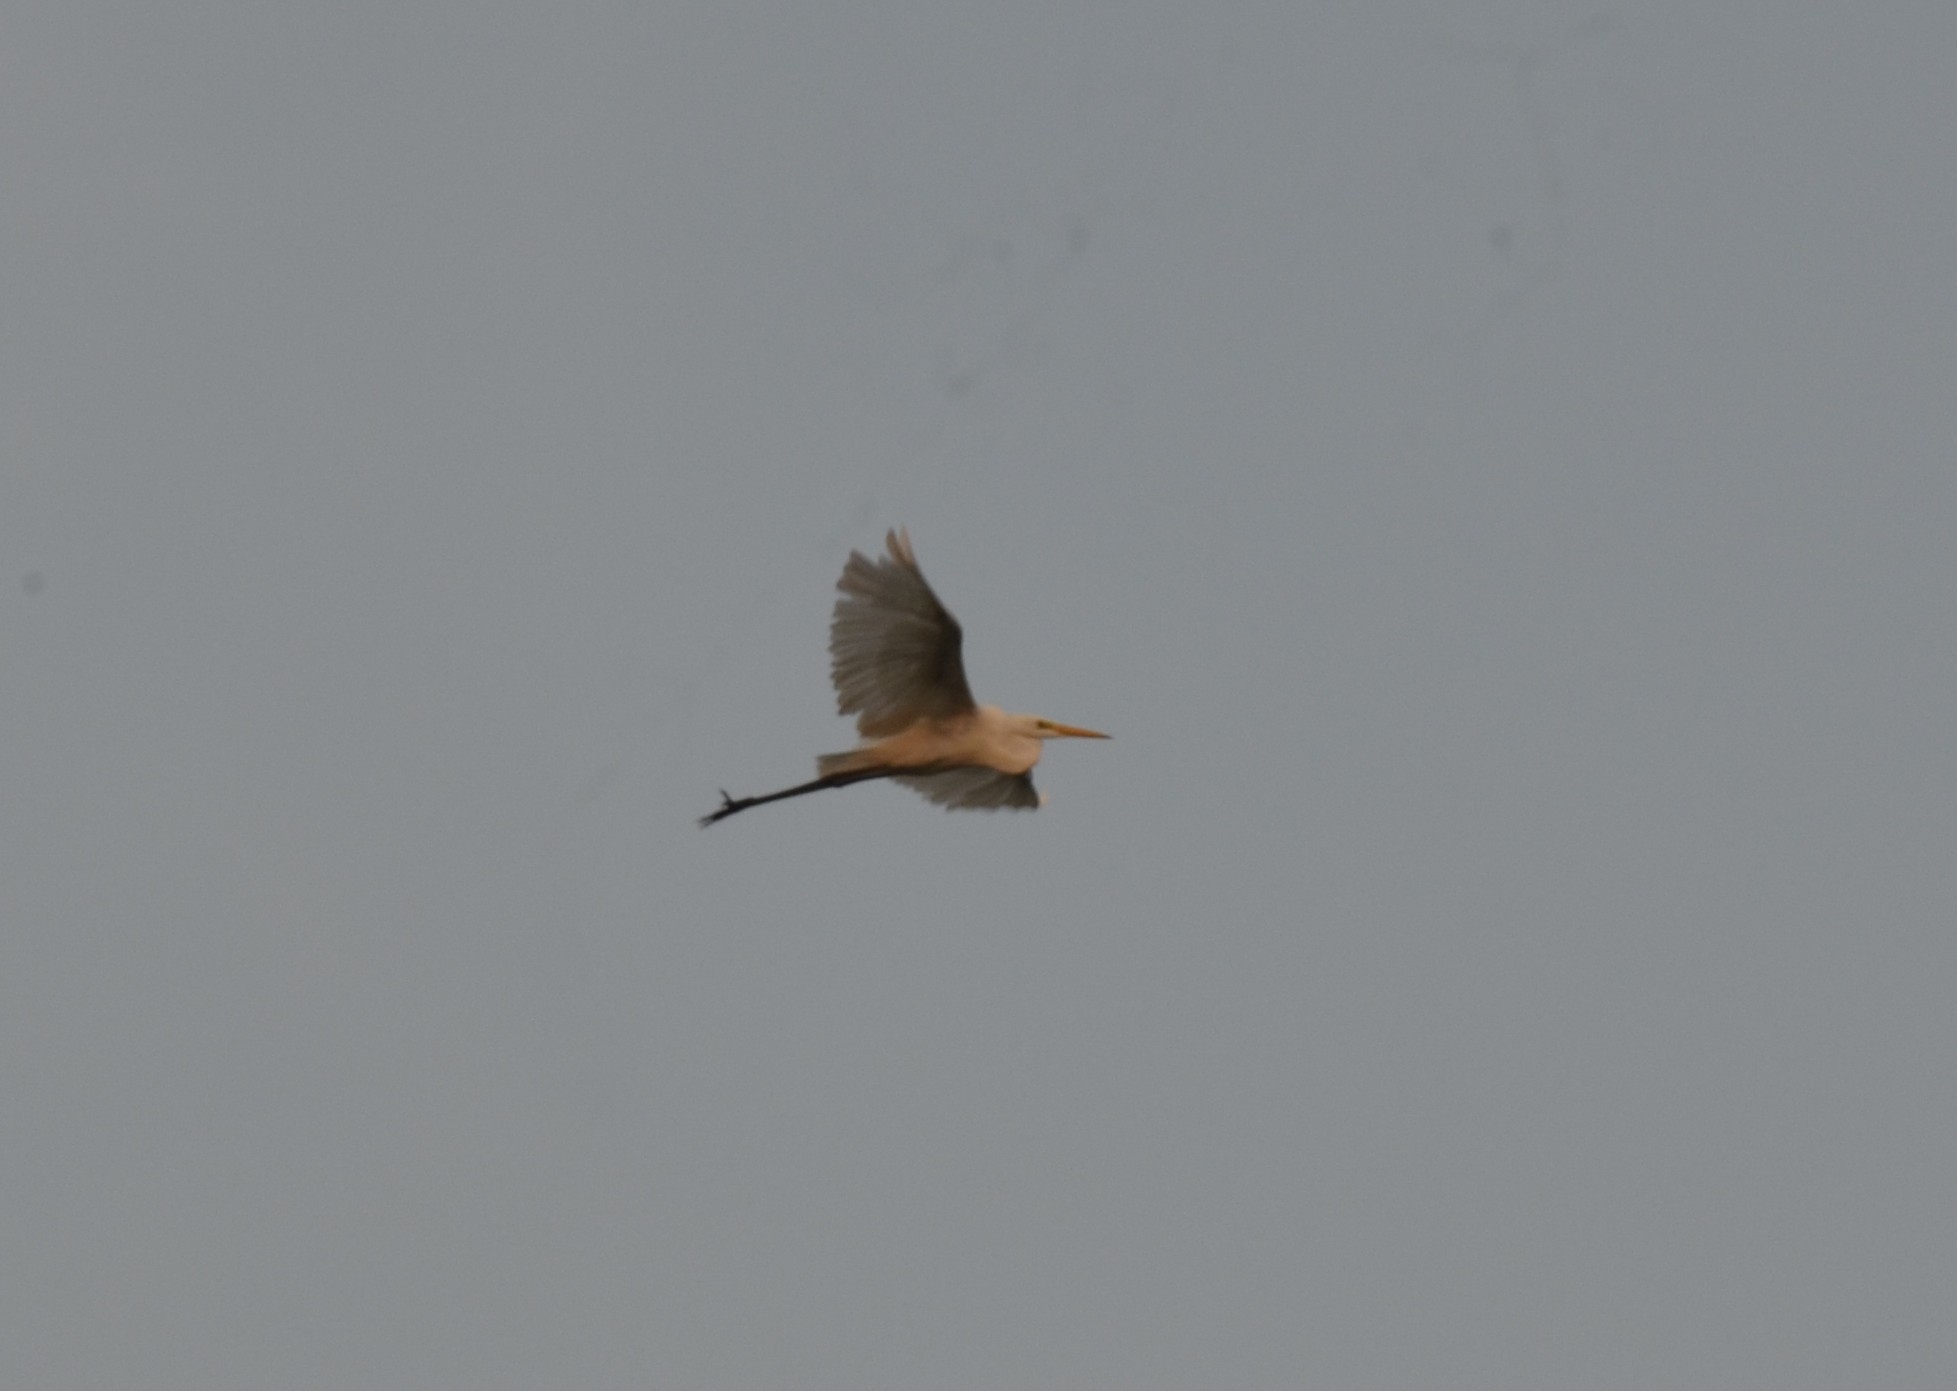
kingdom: Animalia
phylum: Chordata
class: Aves
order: Pelecaniformes
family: Ardeidae
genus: Egretta
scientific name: Egretta intermedia
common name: Intermediate egret
